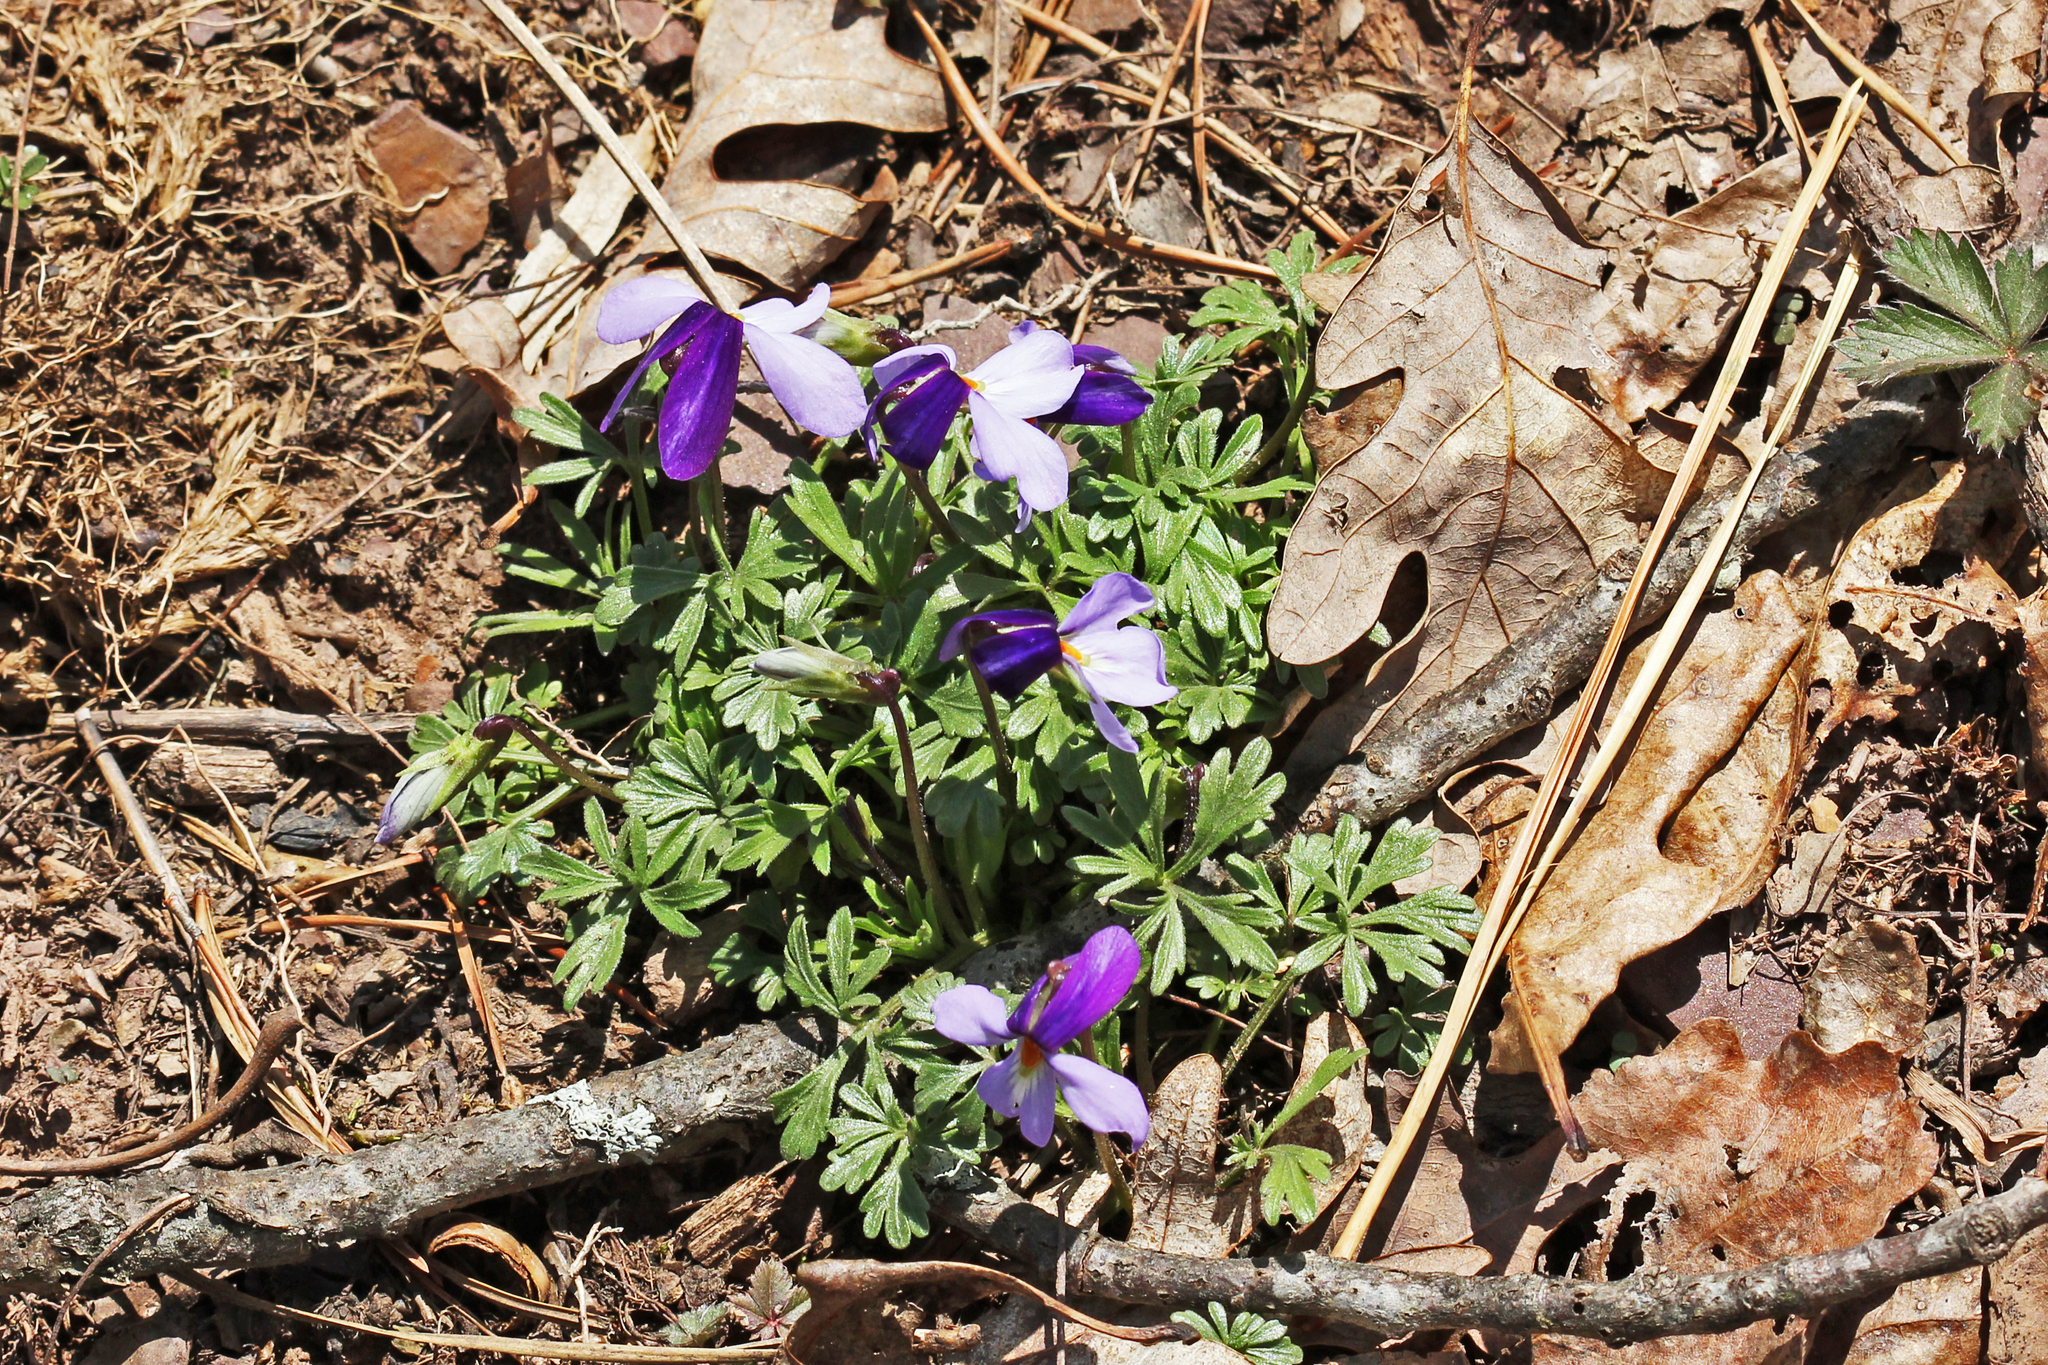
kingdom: Plantae
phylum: Tracheophyta
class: Magnoliopsida
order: Malpighiales
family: Violaceae
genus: Viola
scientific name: Viola pedata
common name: Pansy violet
